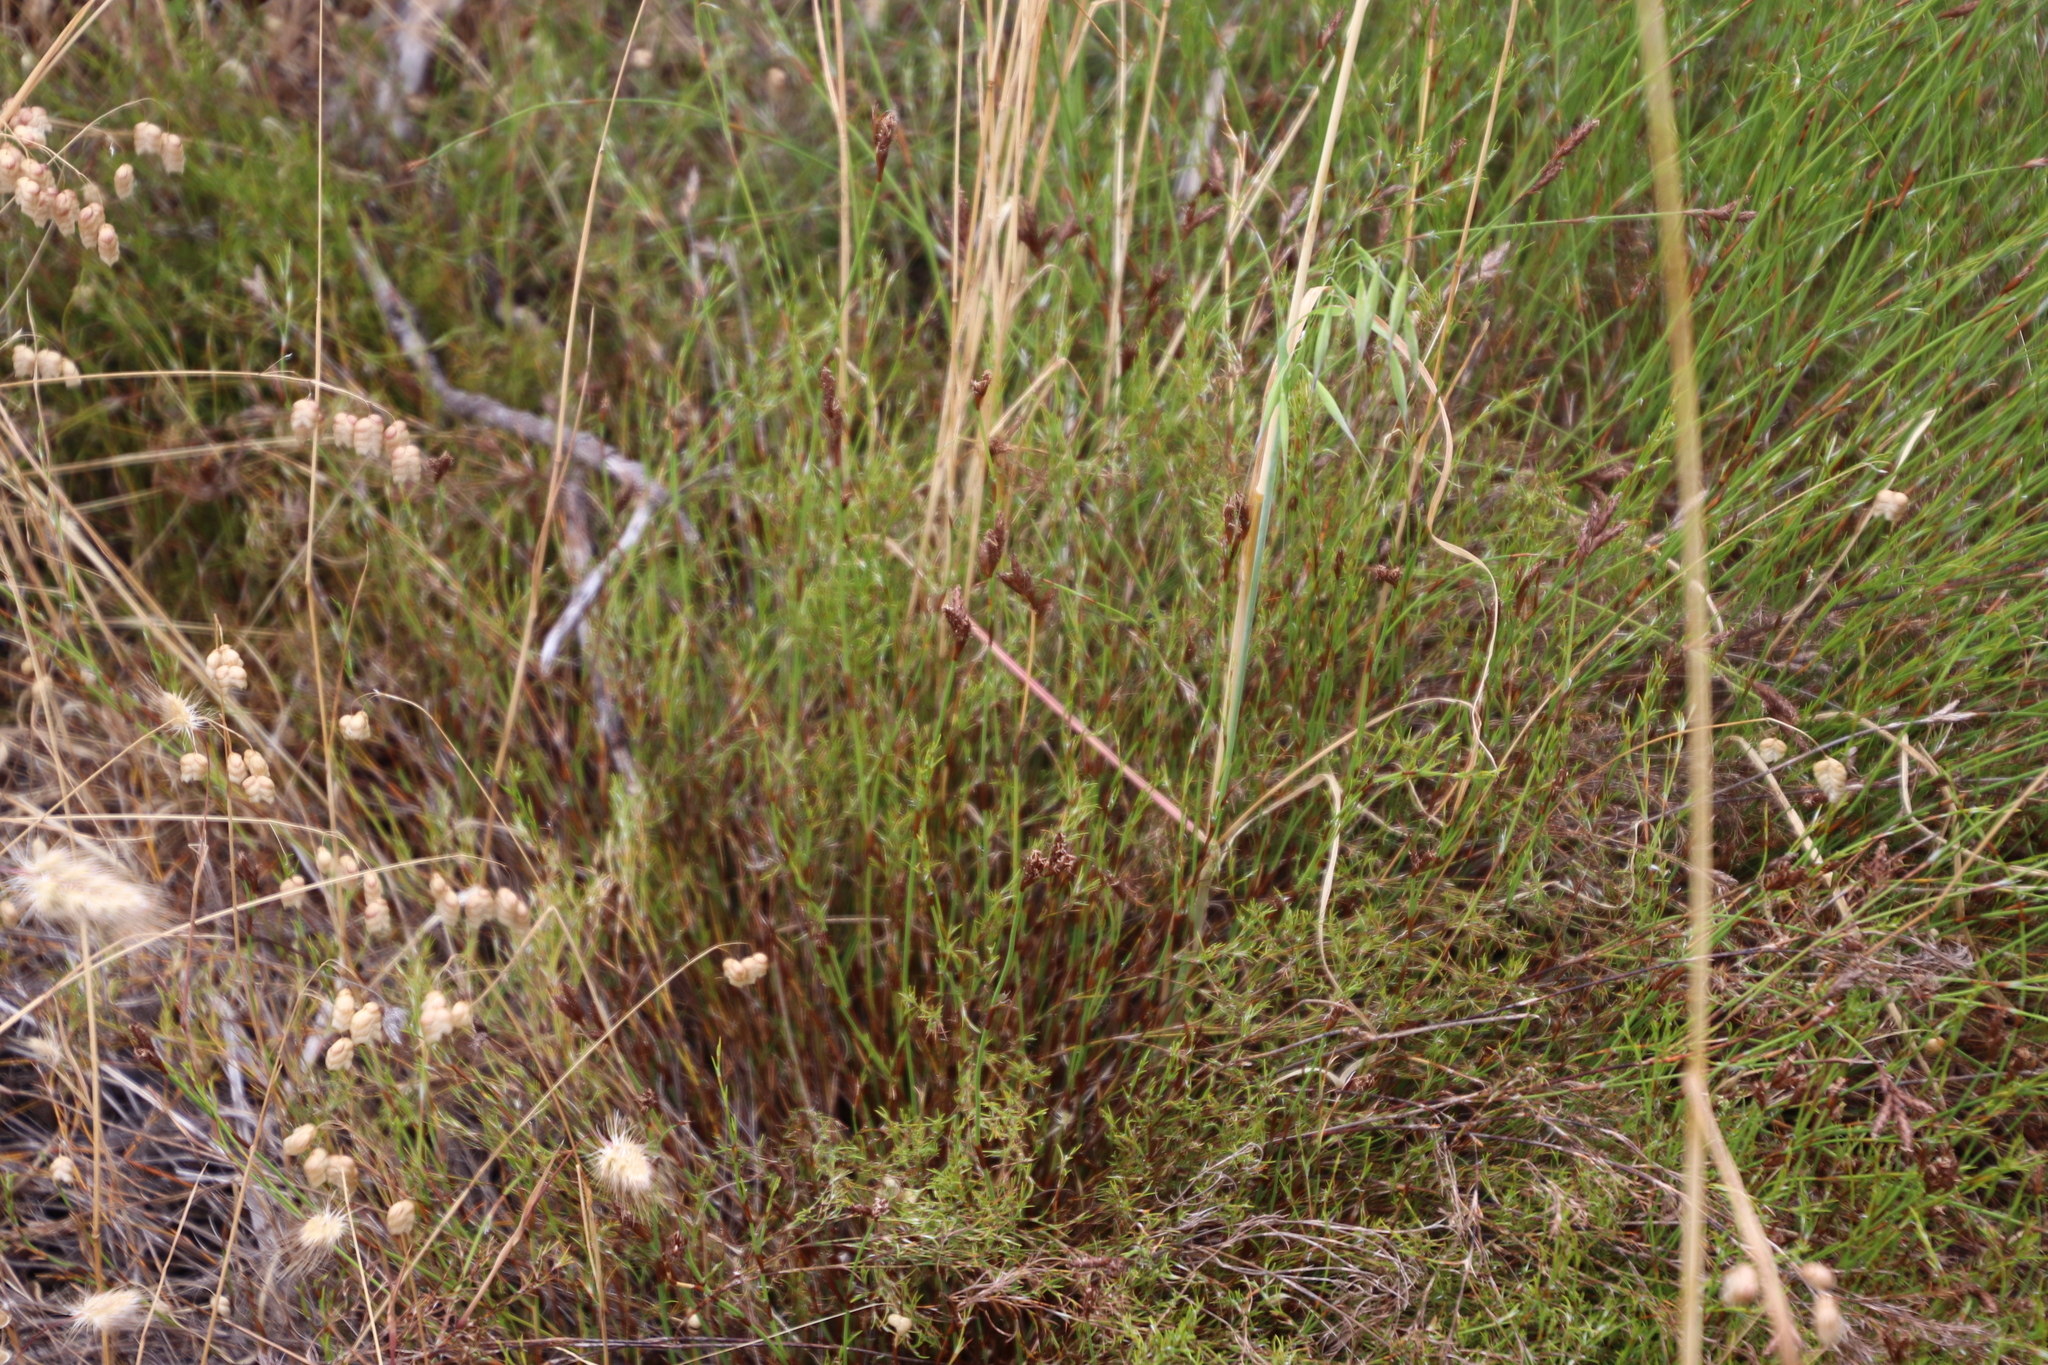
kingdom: Plantae
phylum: Tracheophyta
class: Liliopsida
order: Poales
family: Restionaceae
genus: Restio
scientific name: Restio capensis
